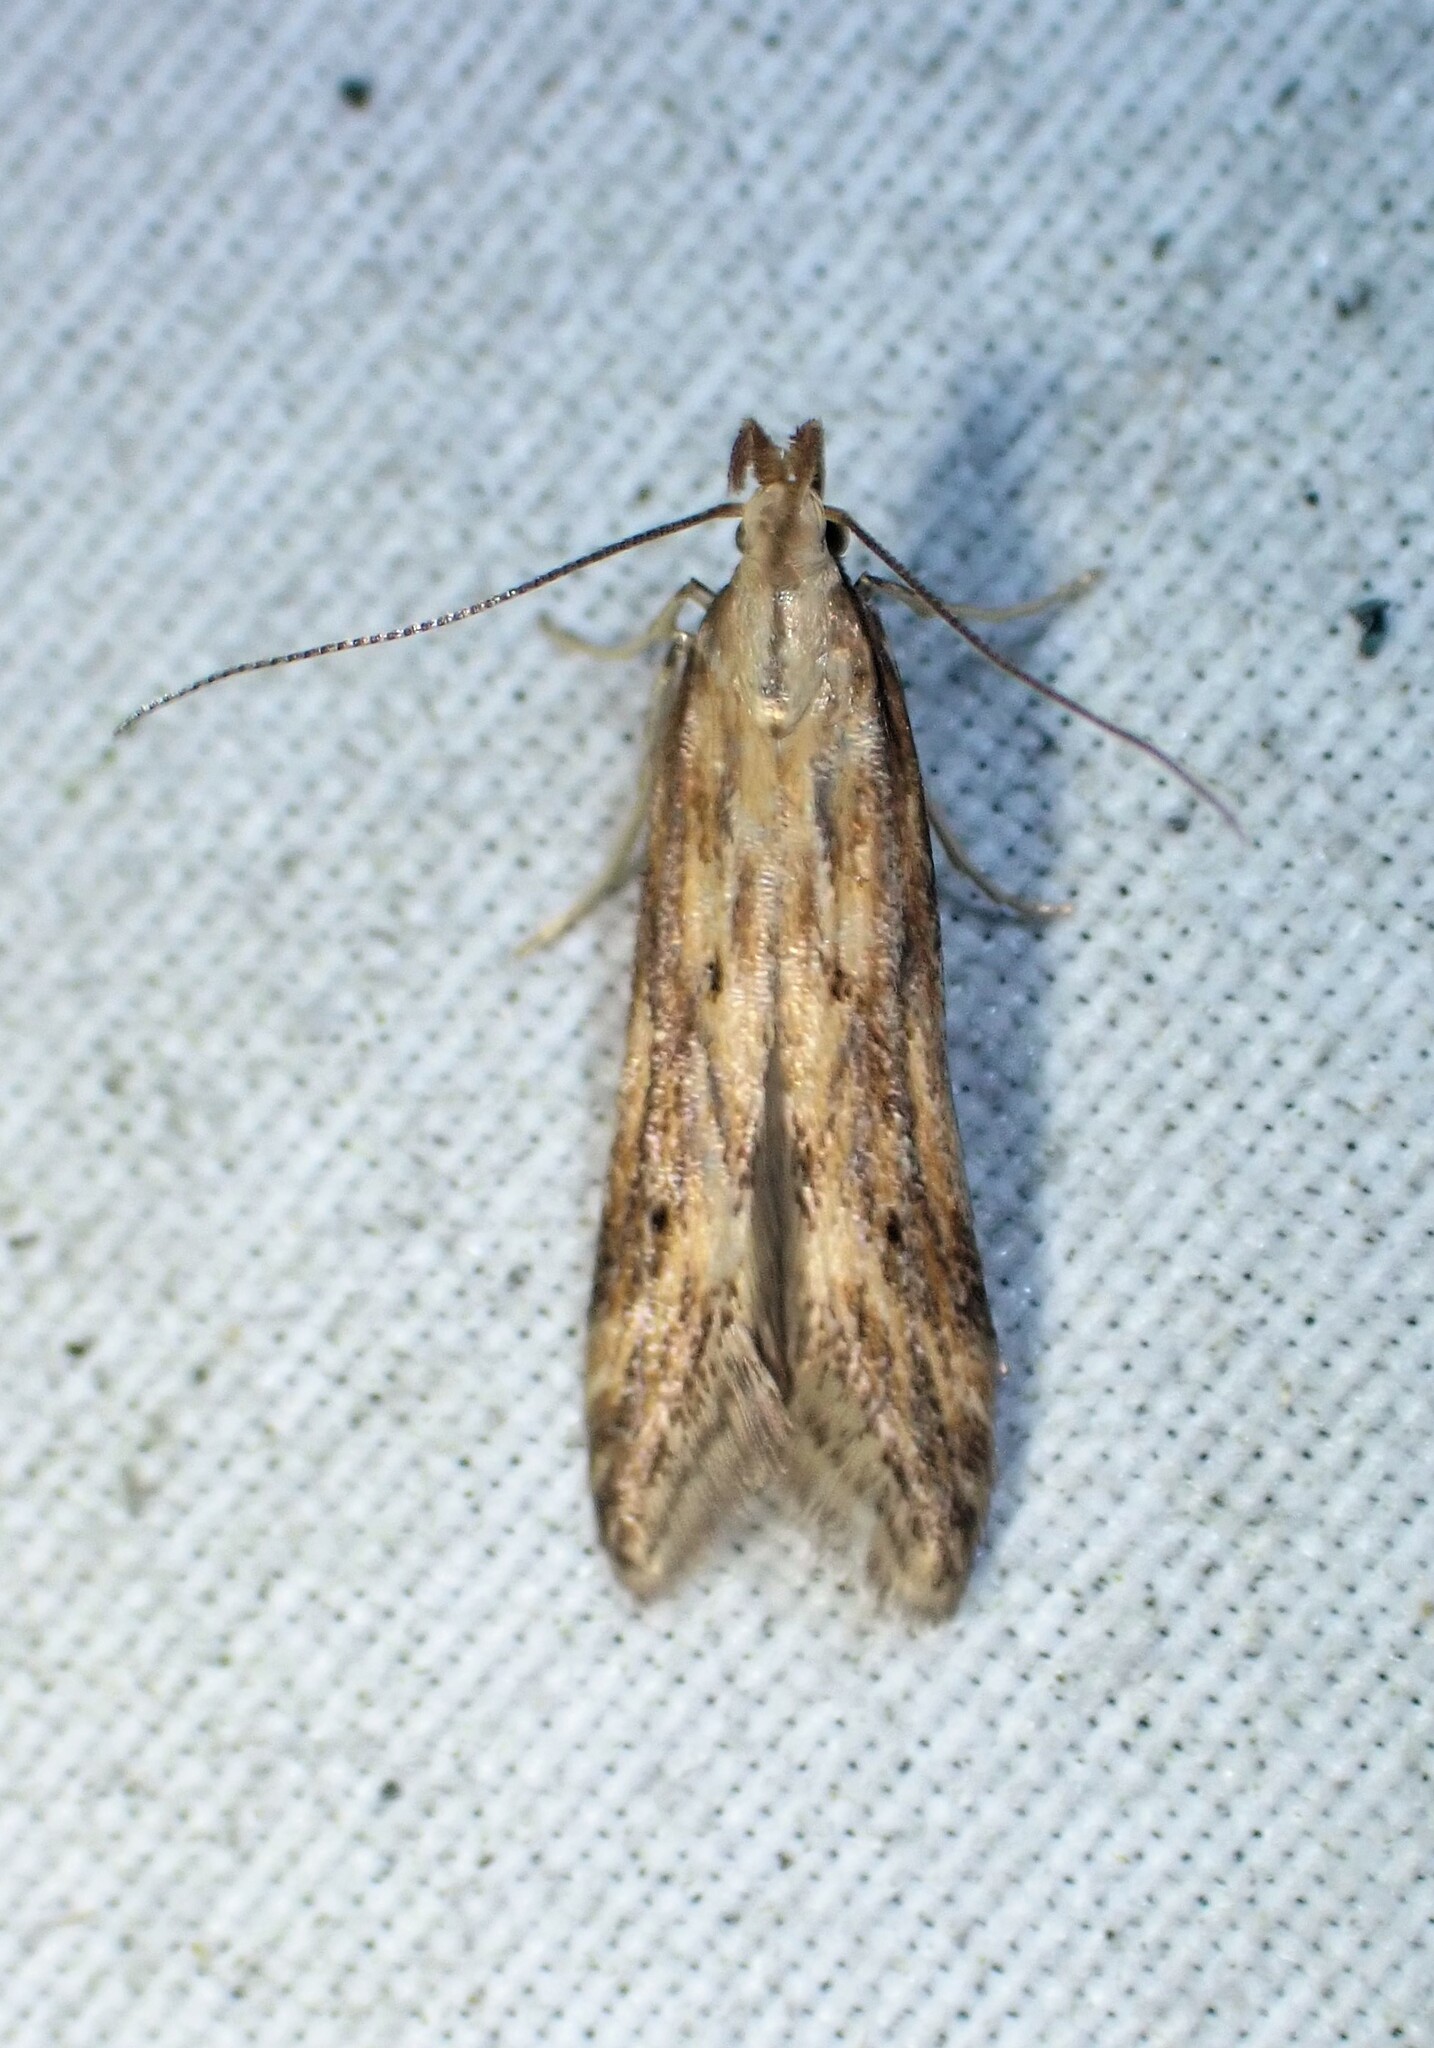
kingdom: Animalia
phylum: Arthropoda
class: Insecta
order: Lepidoptera
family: Gelechiidae
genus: Metzneria
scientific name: Metzneria lappella
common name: Burdock neb
